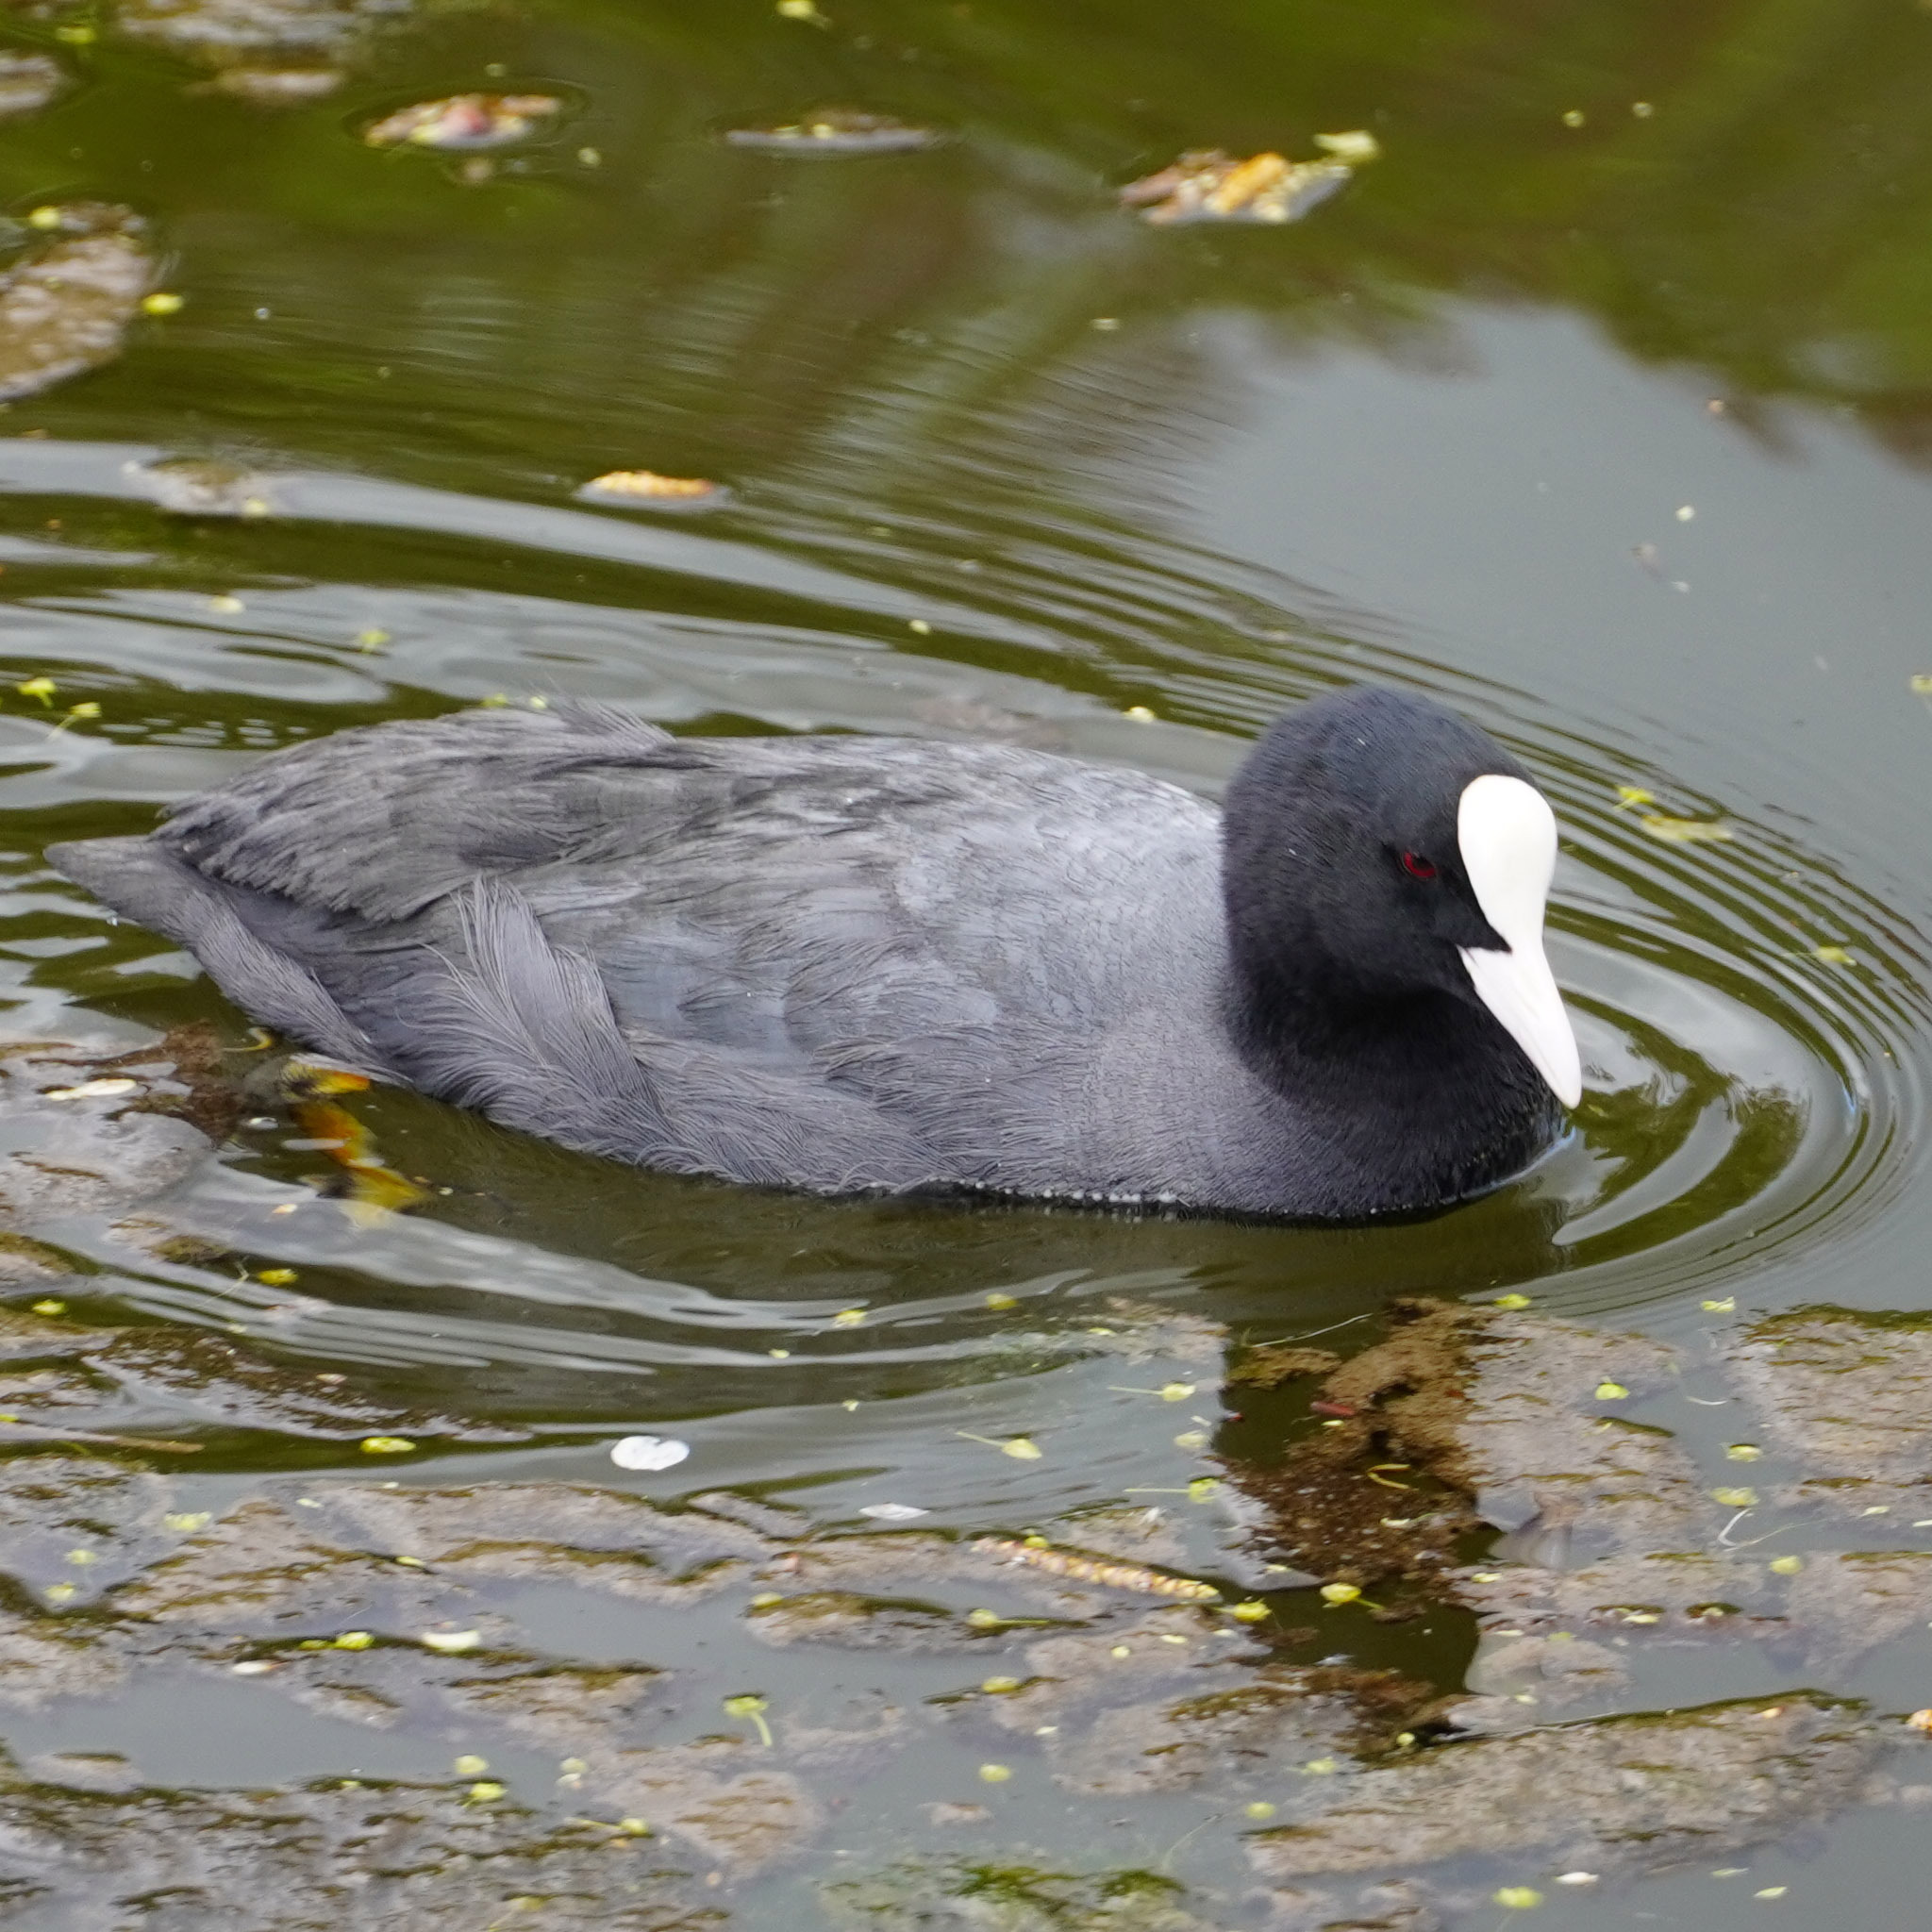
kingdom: Animalia
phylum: Chordata
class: Aves
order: Gruiformes
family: Rallidae
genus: Fulica
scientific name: Fulica atra
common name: Eurasian coot
